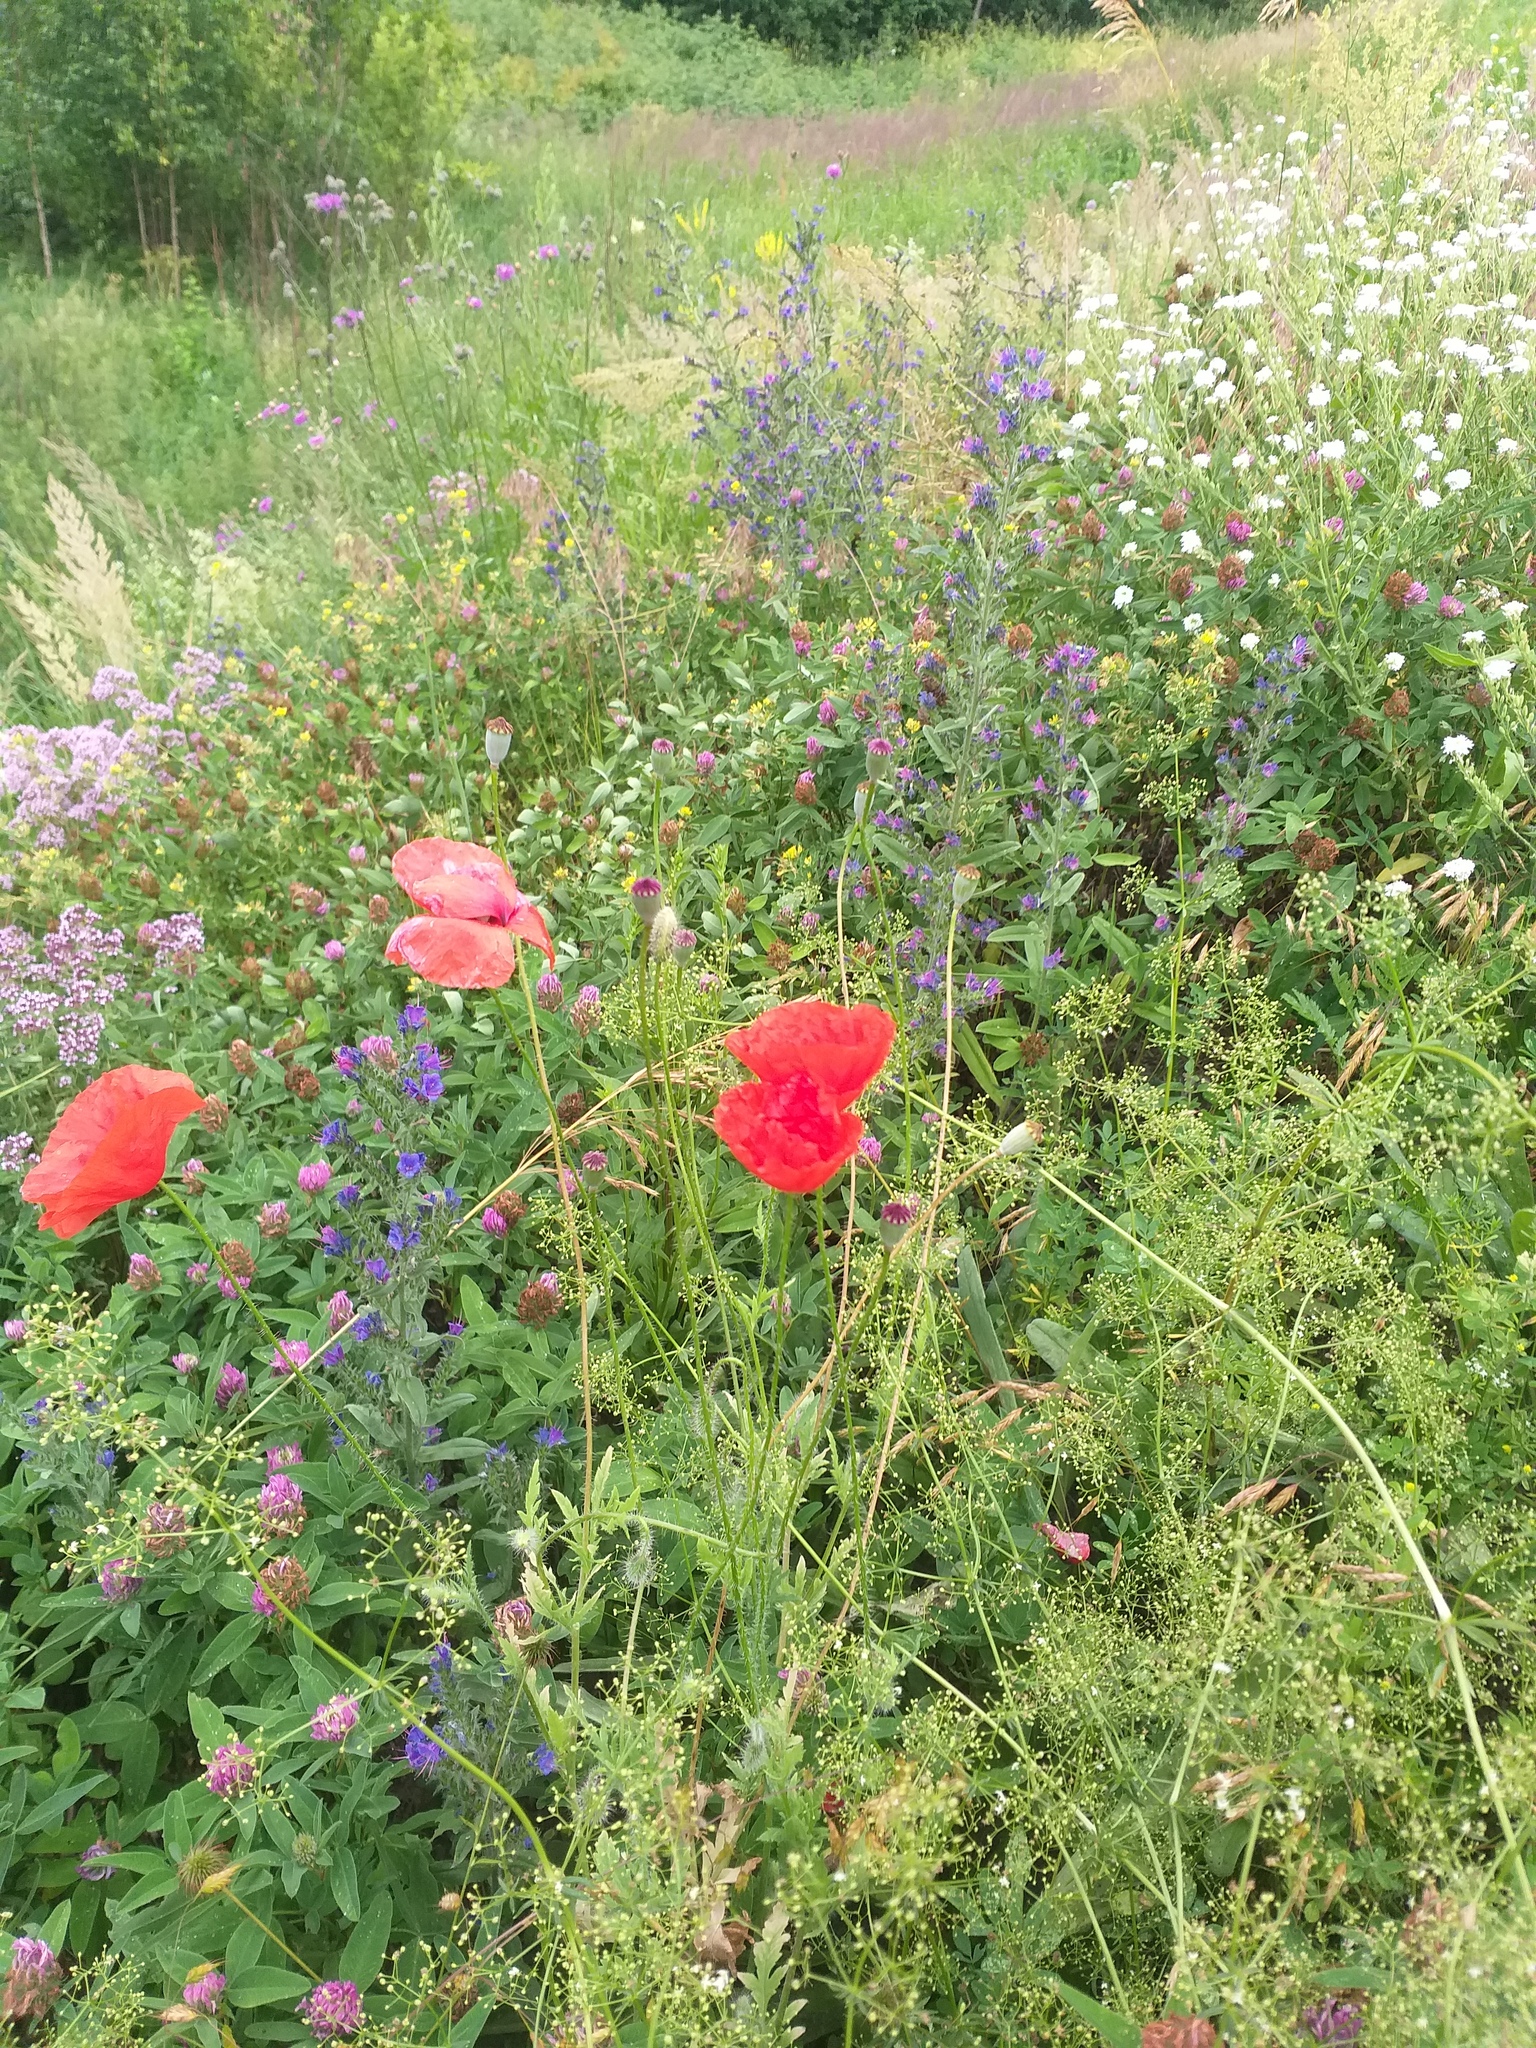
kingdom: Plantae
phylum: Tracheophyta
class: Magnoliopsida
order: Ranunculales
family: Papaveraceae
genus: Papaver
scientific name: Papaver rhoeas
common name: Corn poppy
